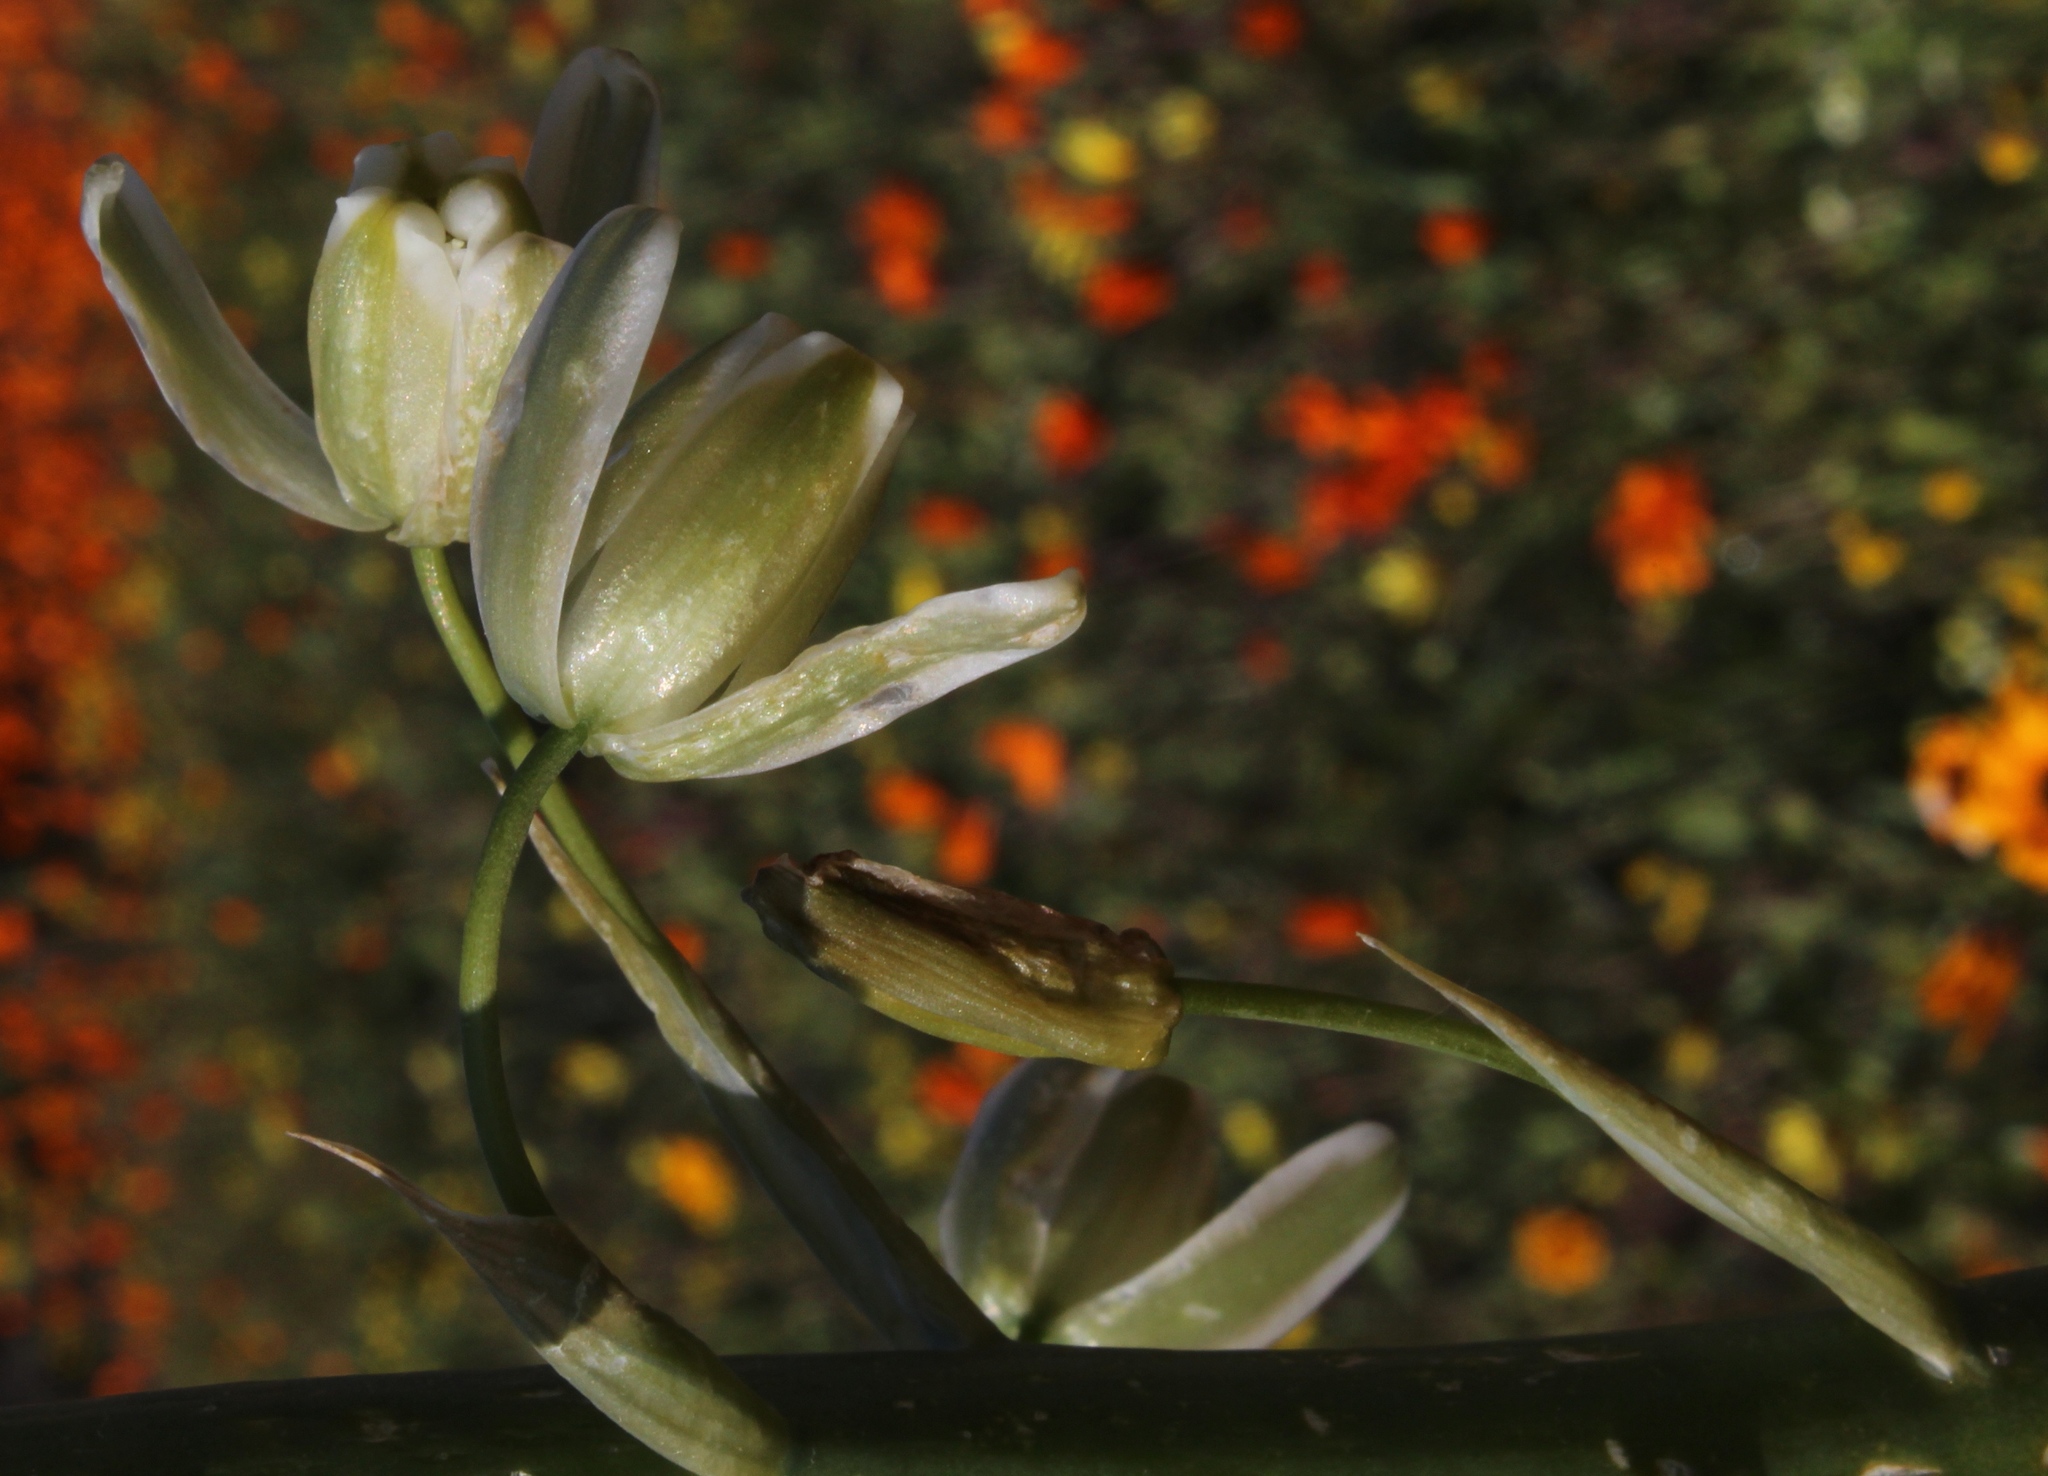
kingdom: Plantae
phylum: Tracheophyta
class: Liliopsida
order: Asparagales
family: Asparagaceae
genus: Albuca
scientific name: Albuca canadensis
